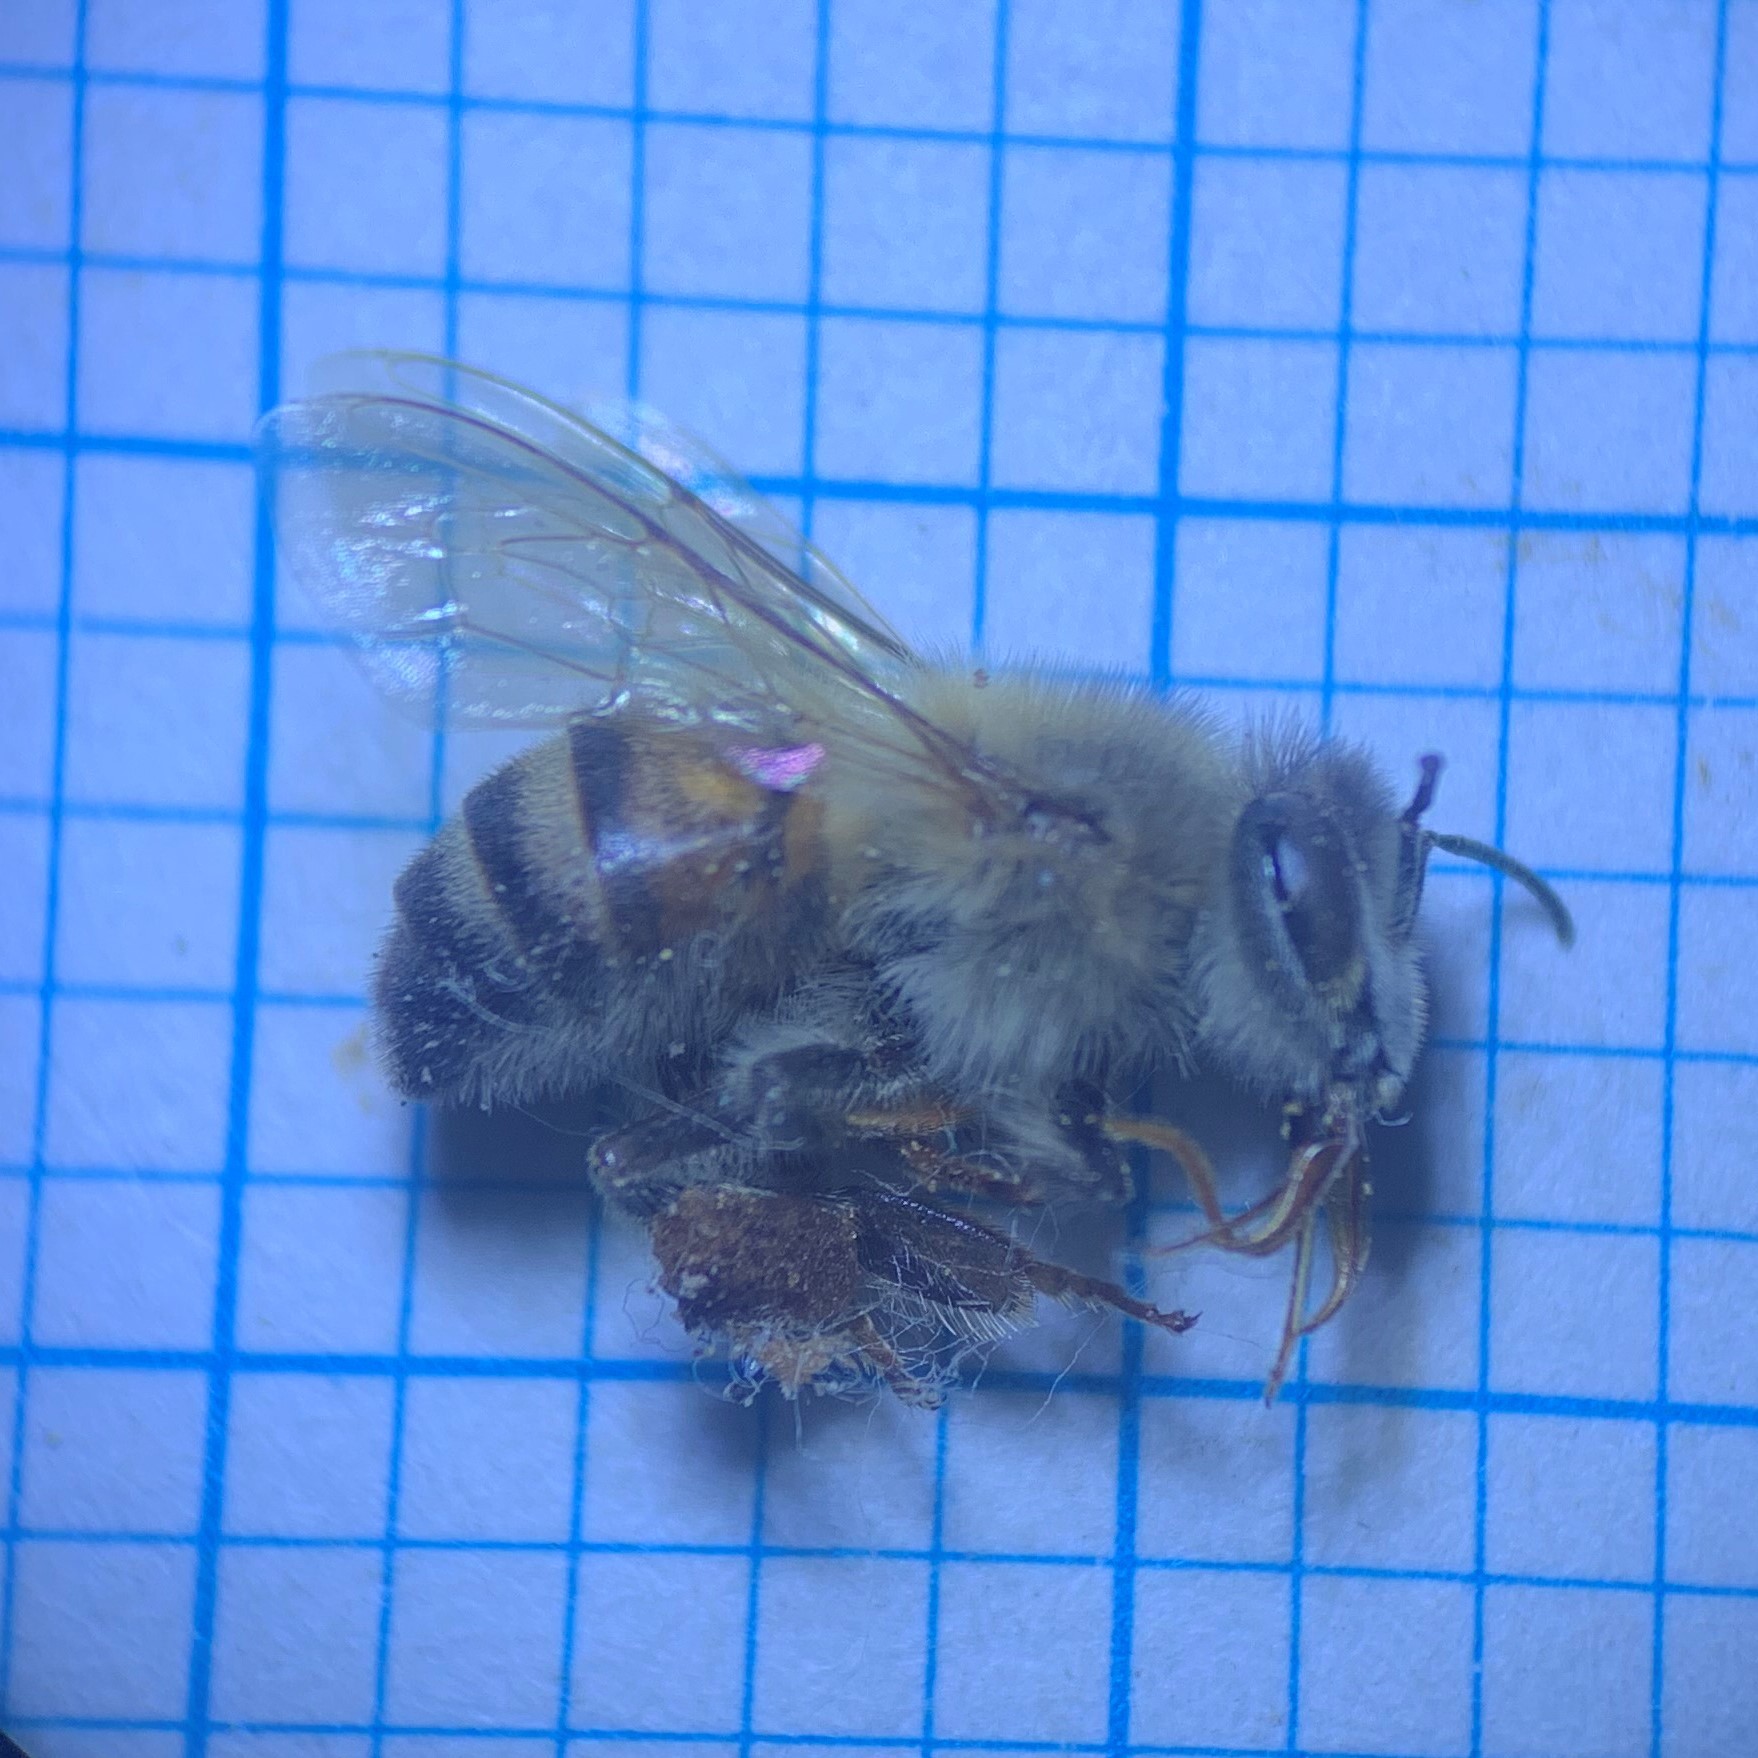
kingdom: Animalia
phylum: Arthropoda
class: Insecta
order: Hymenoptera
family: Apidae
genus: Apis
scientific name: Apis mellifera
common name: Honey bee
